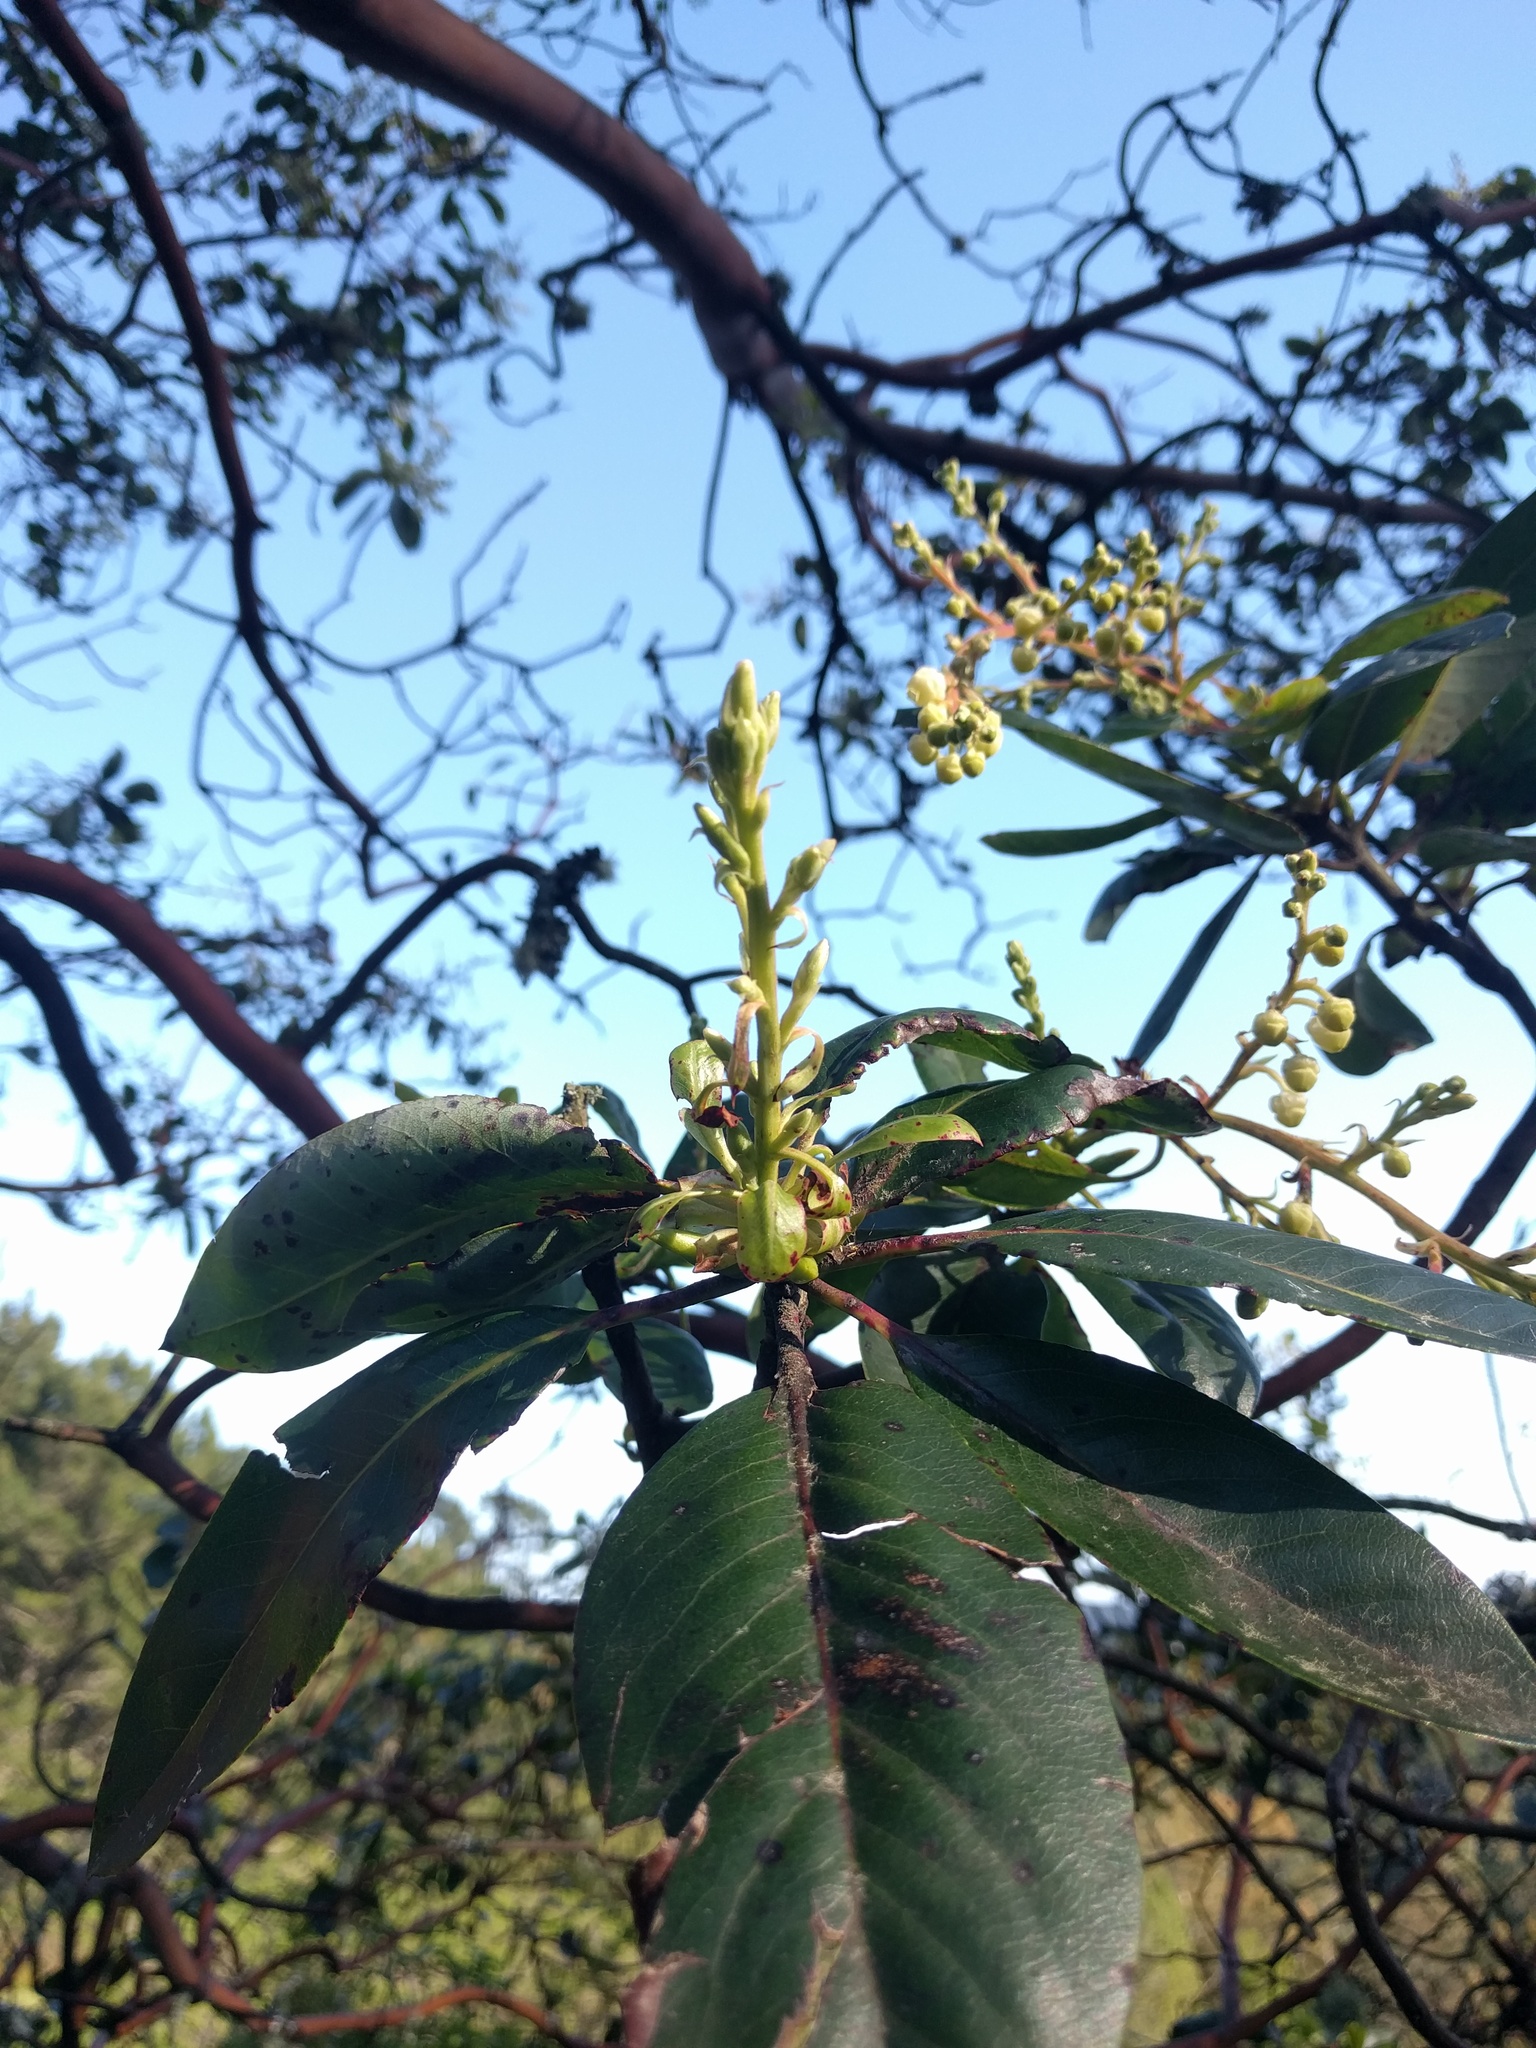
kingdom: Plantae
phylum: Tracheophyta
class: Magnoliopsida
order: Ericales
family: Ericaceae
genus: Arbutus
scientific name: Arbutus menziesii
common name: Pacific madrone
